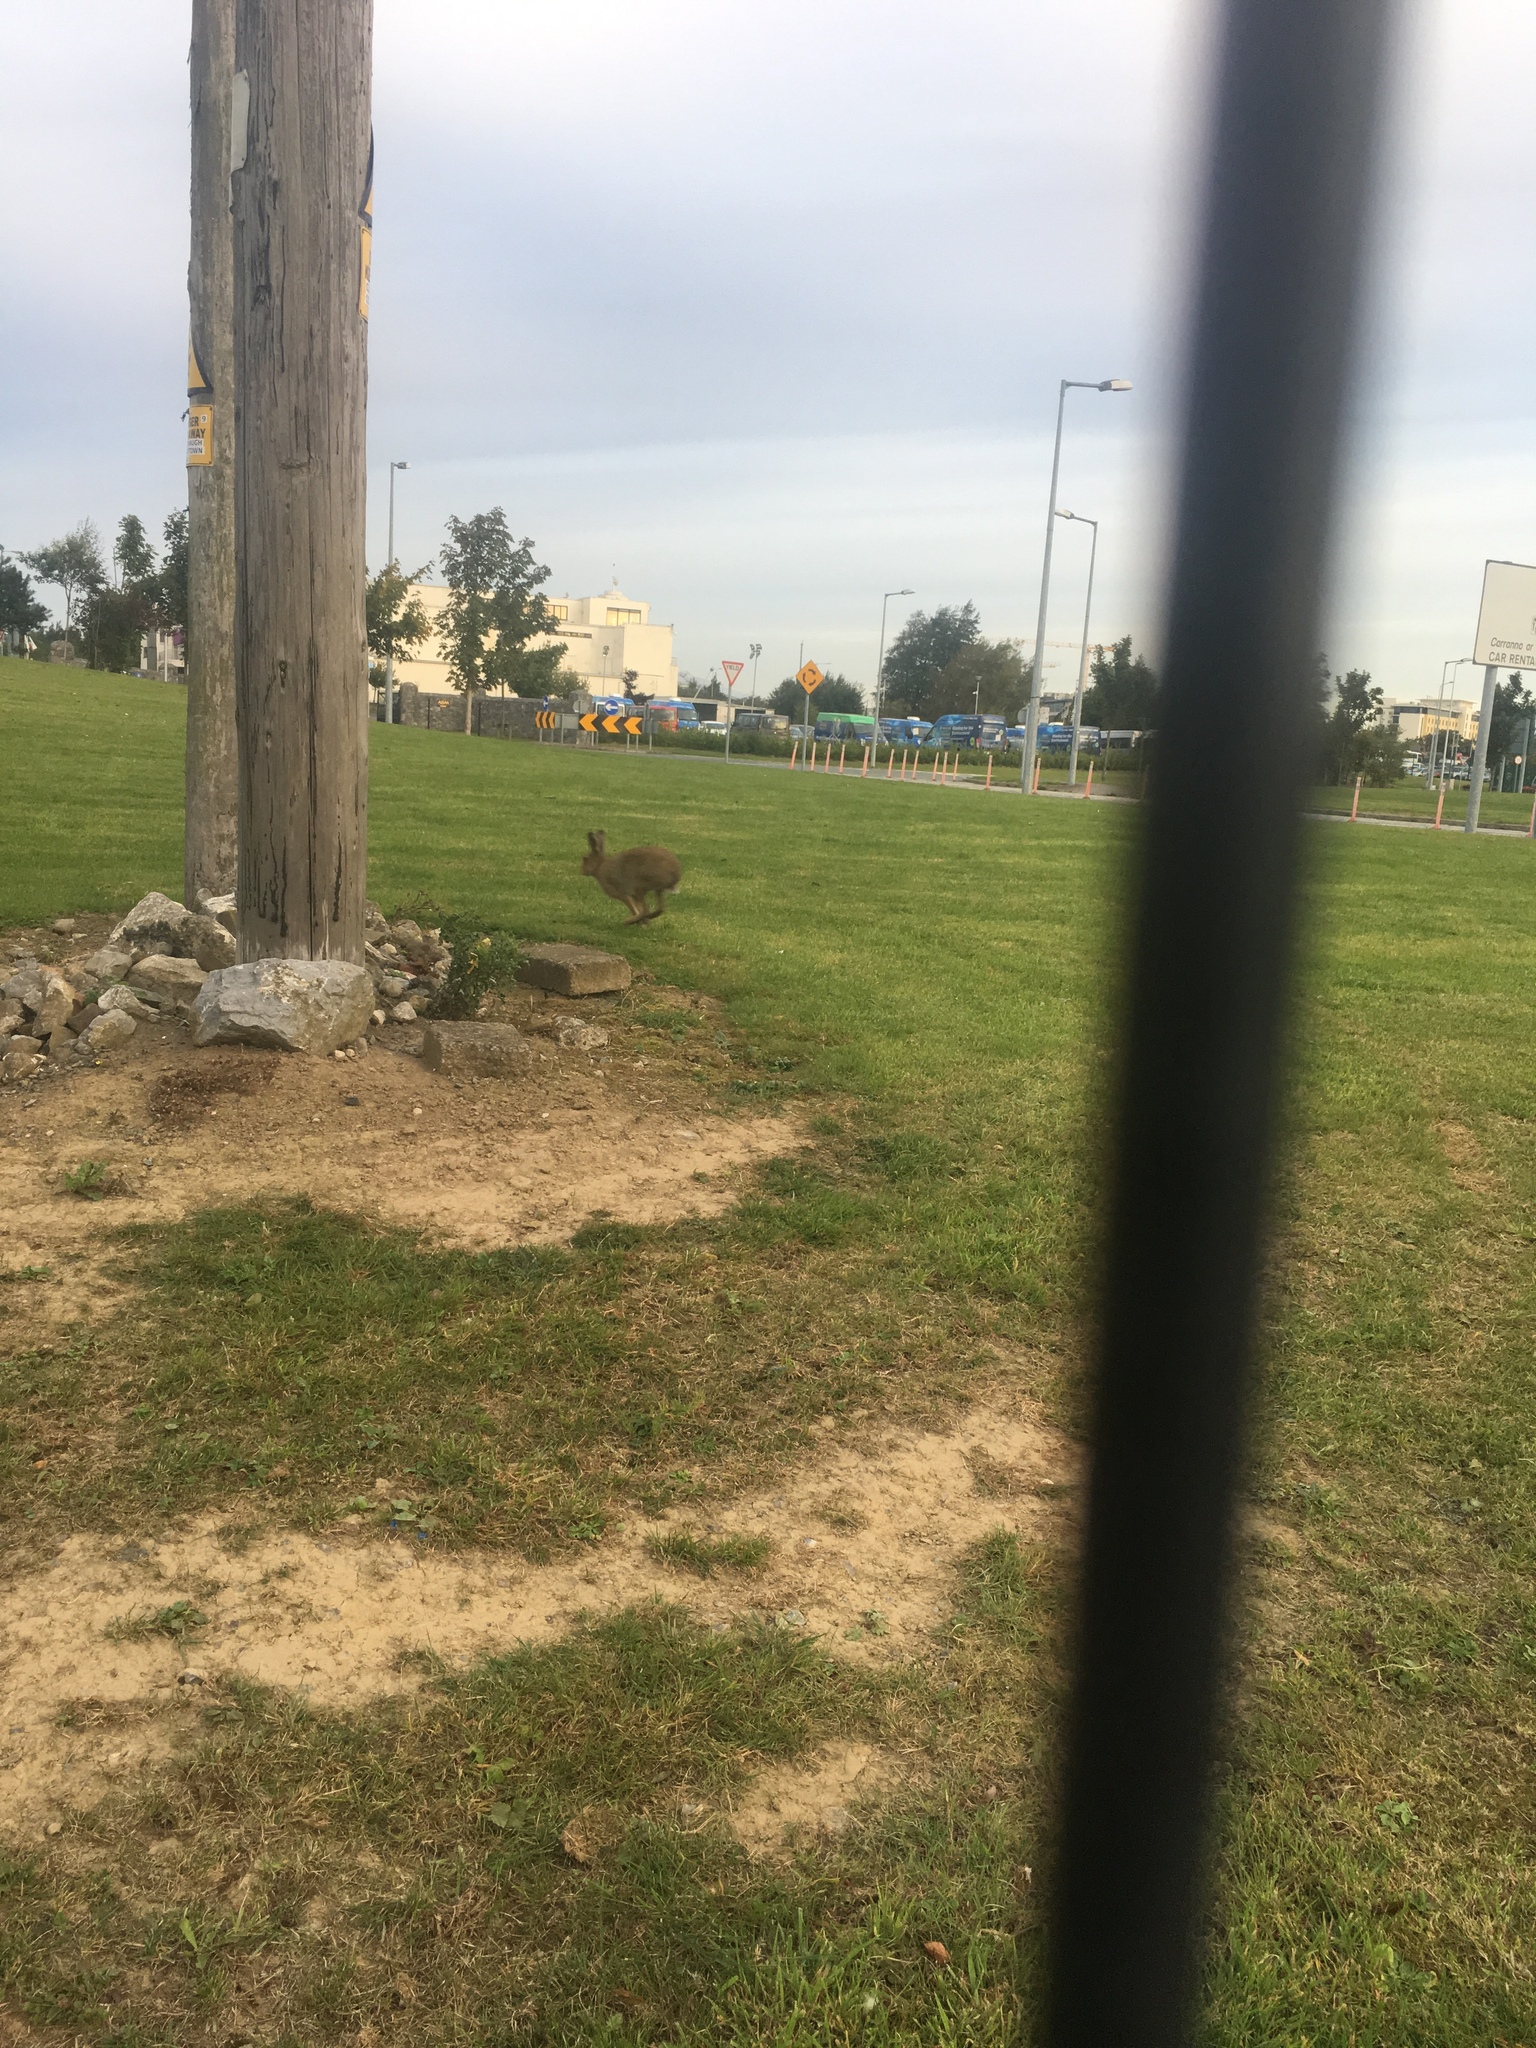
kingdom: Animalia
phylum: Chordata
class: Mammalia
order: Lagomorpha
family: Leporidae
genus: Lepus
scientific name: Lepus timidus
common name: Mountain hare
